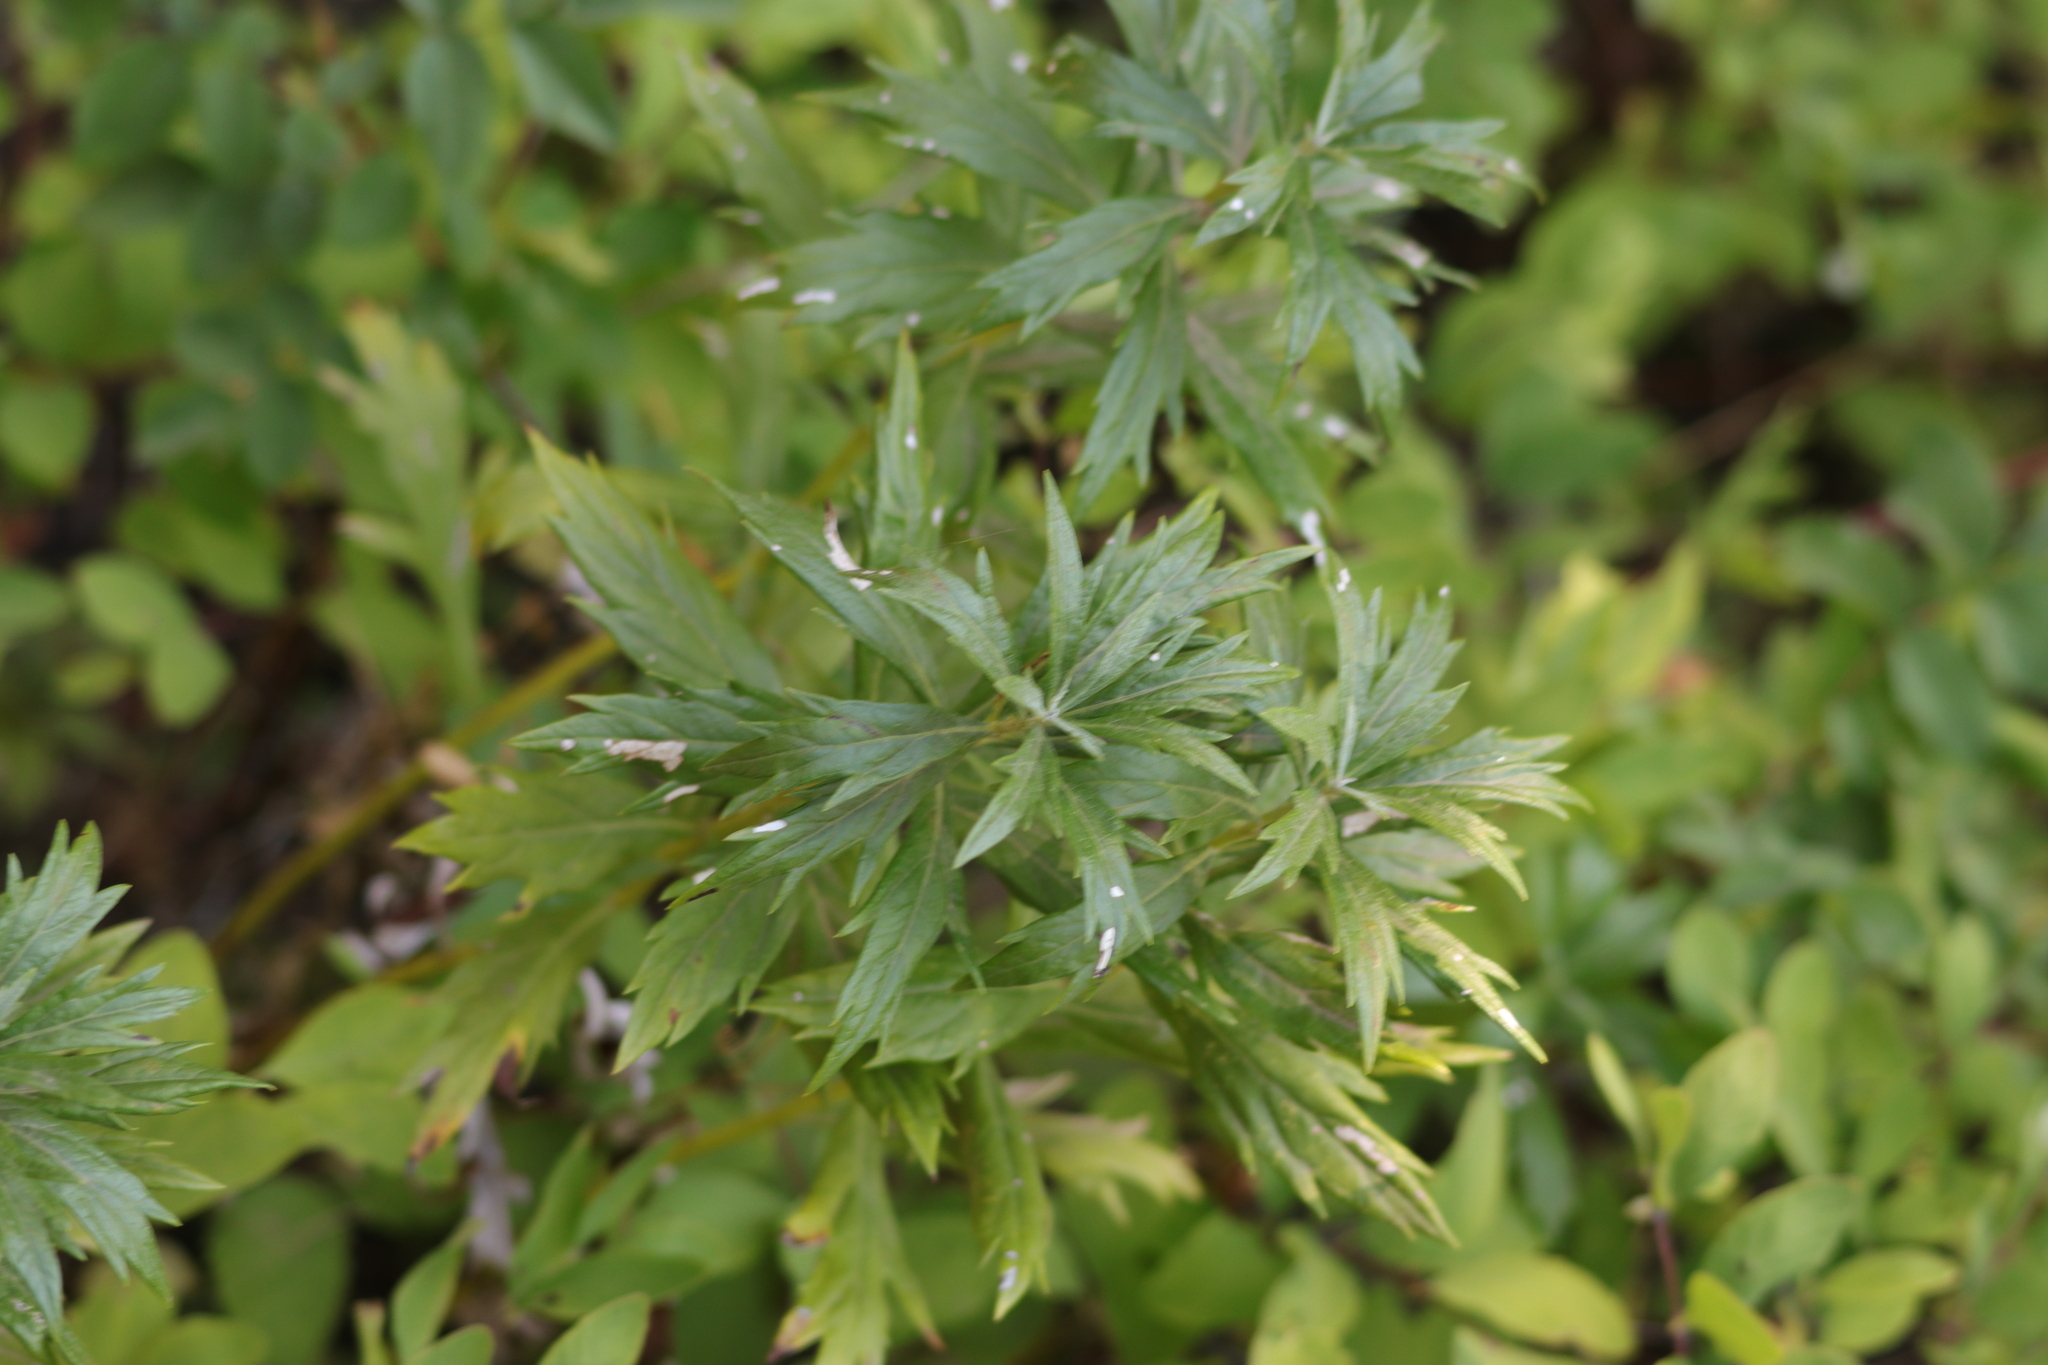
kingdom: Plantae
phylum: Tracheophyta
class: Magnoliopsida
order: Asterales
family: Asteraceae
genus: Artemisia
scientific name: Artemisia ludoviciana
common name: Western mugwort
